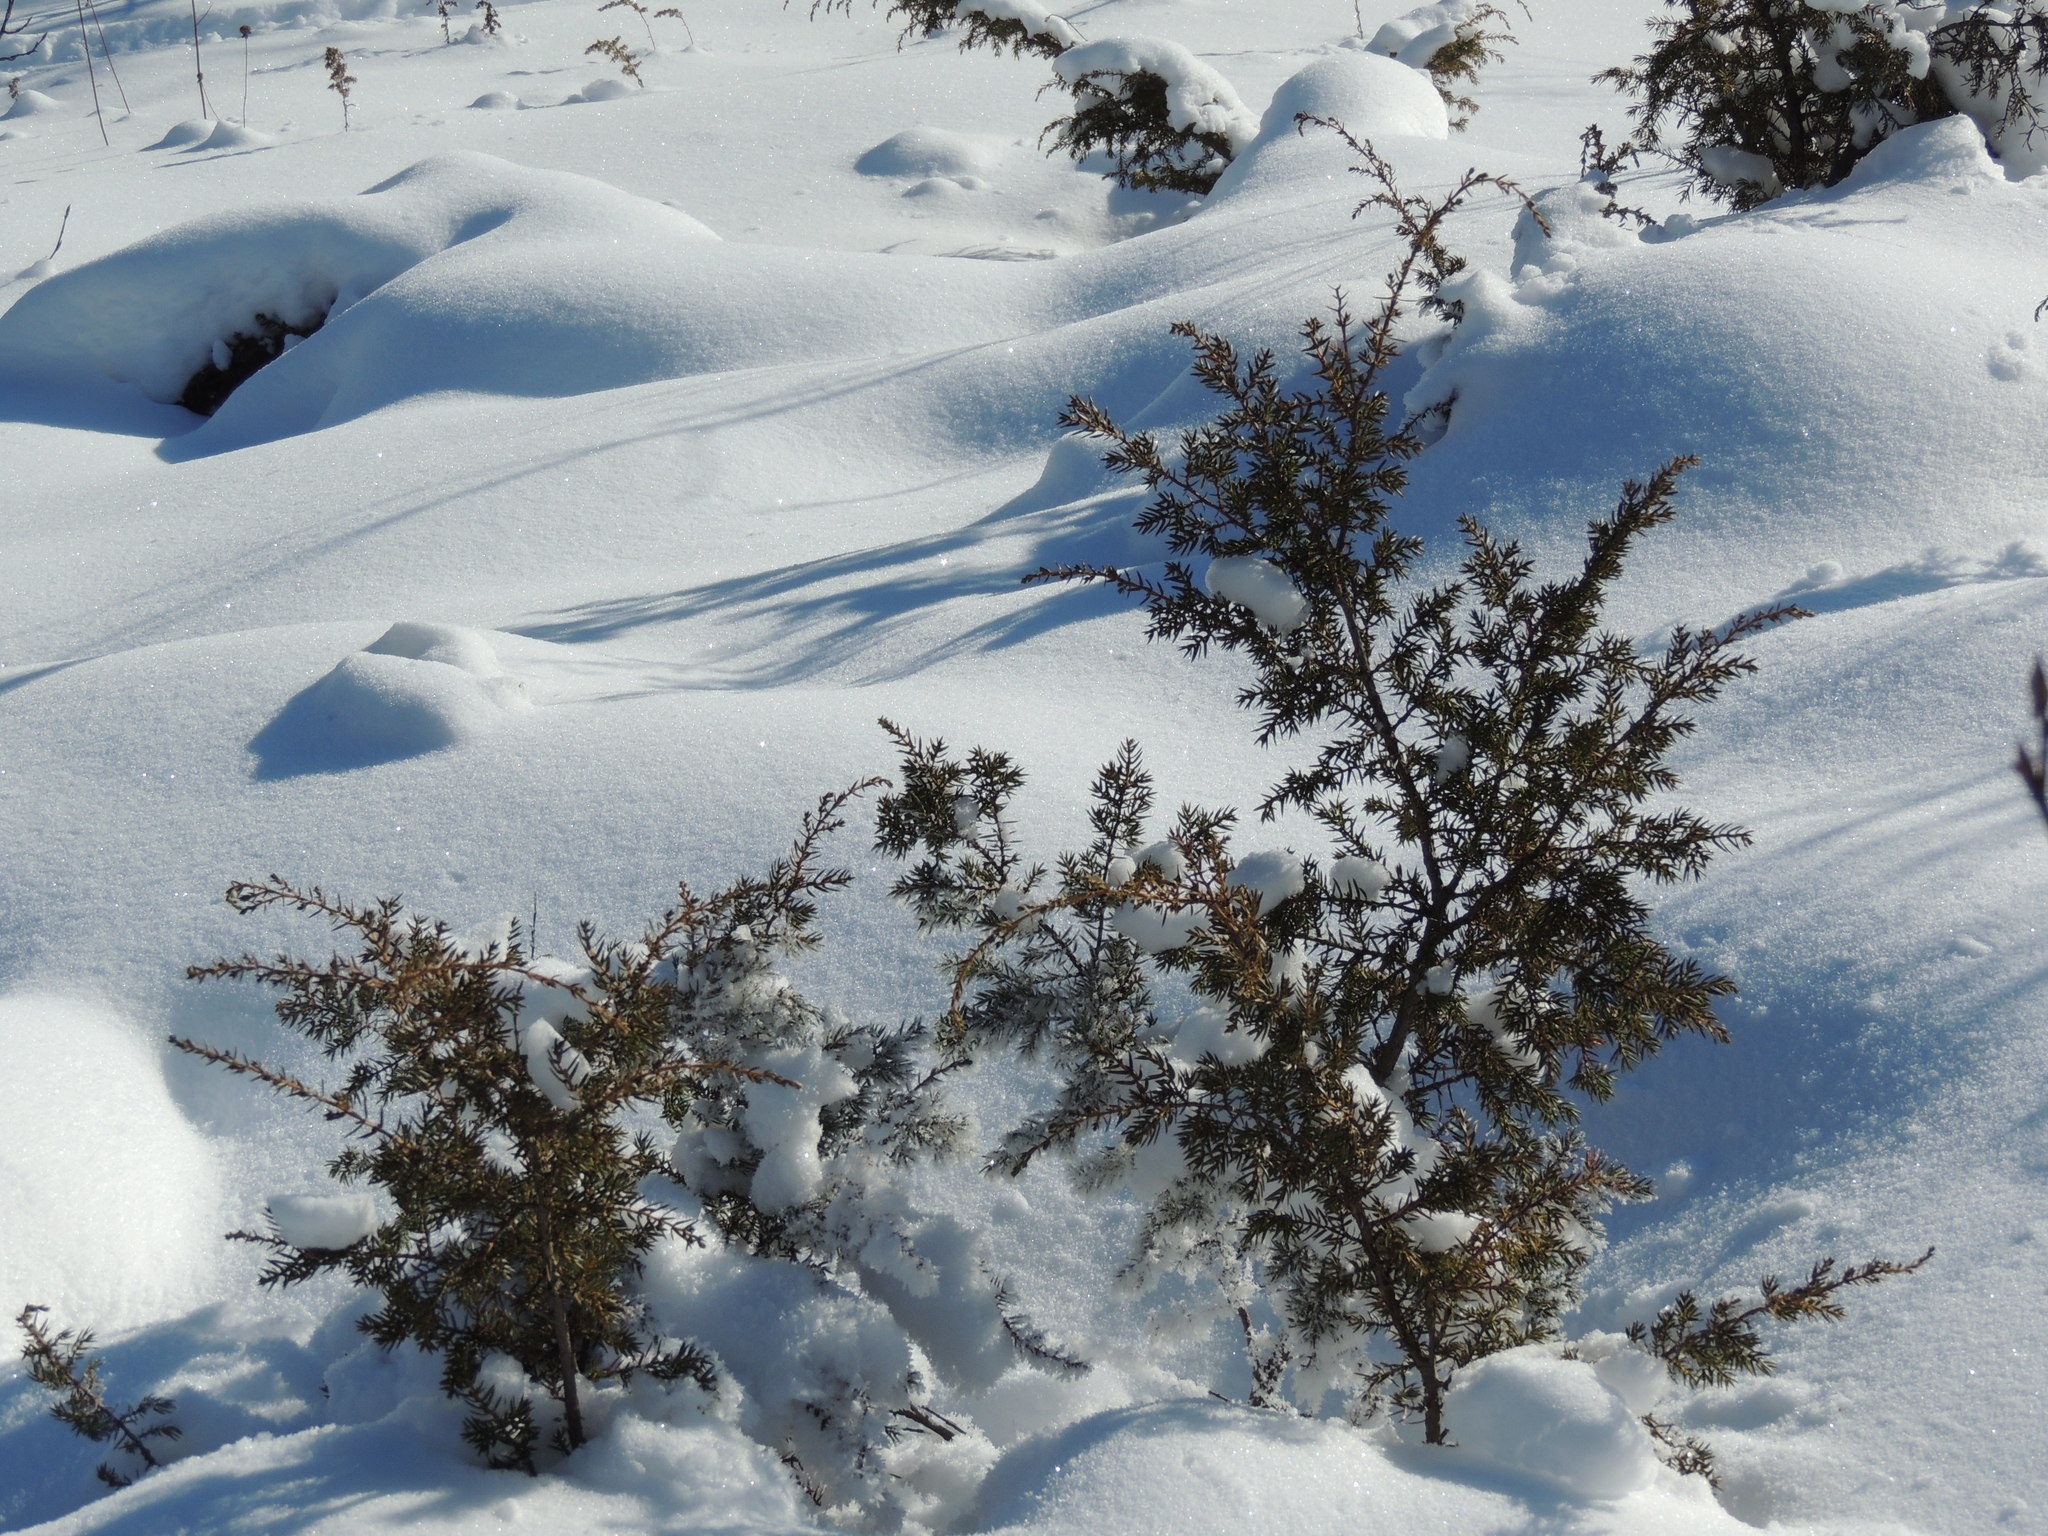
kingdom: Plantae
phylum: Tracheophyta
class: Pinopsida
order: Pinales
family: Cupressaceae
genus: Juniperus
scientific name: Juniperus communis
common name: Common juniper
